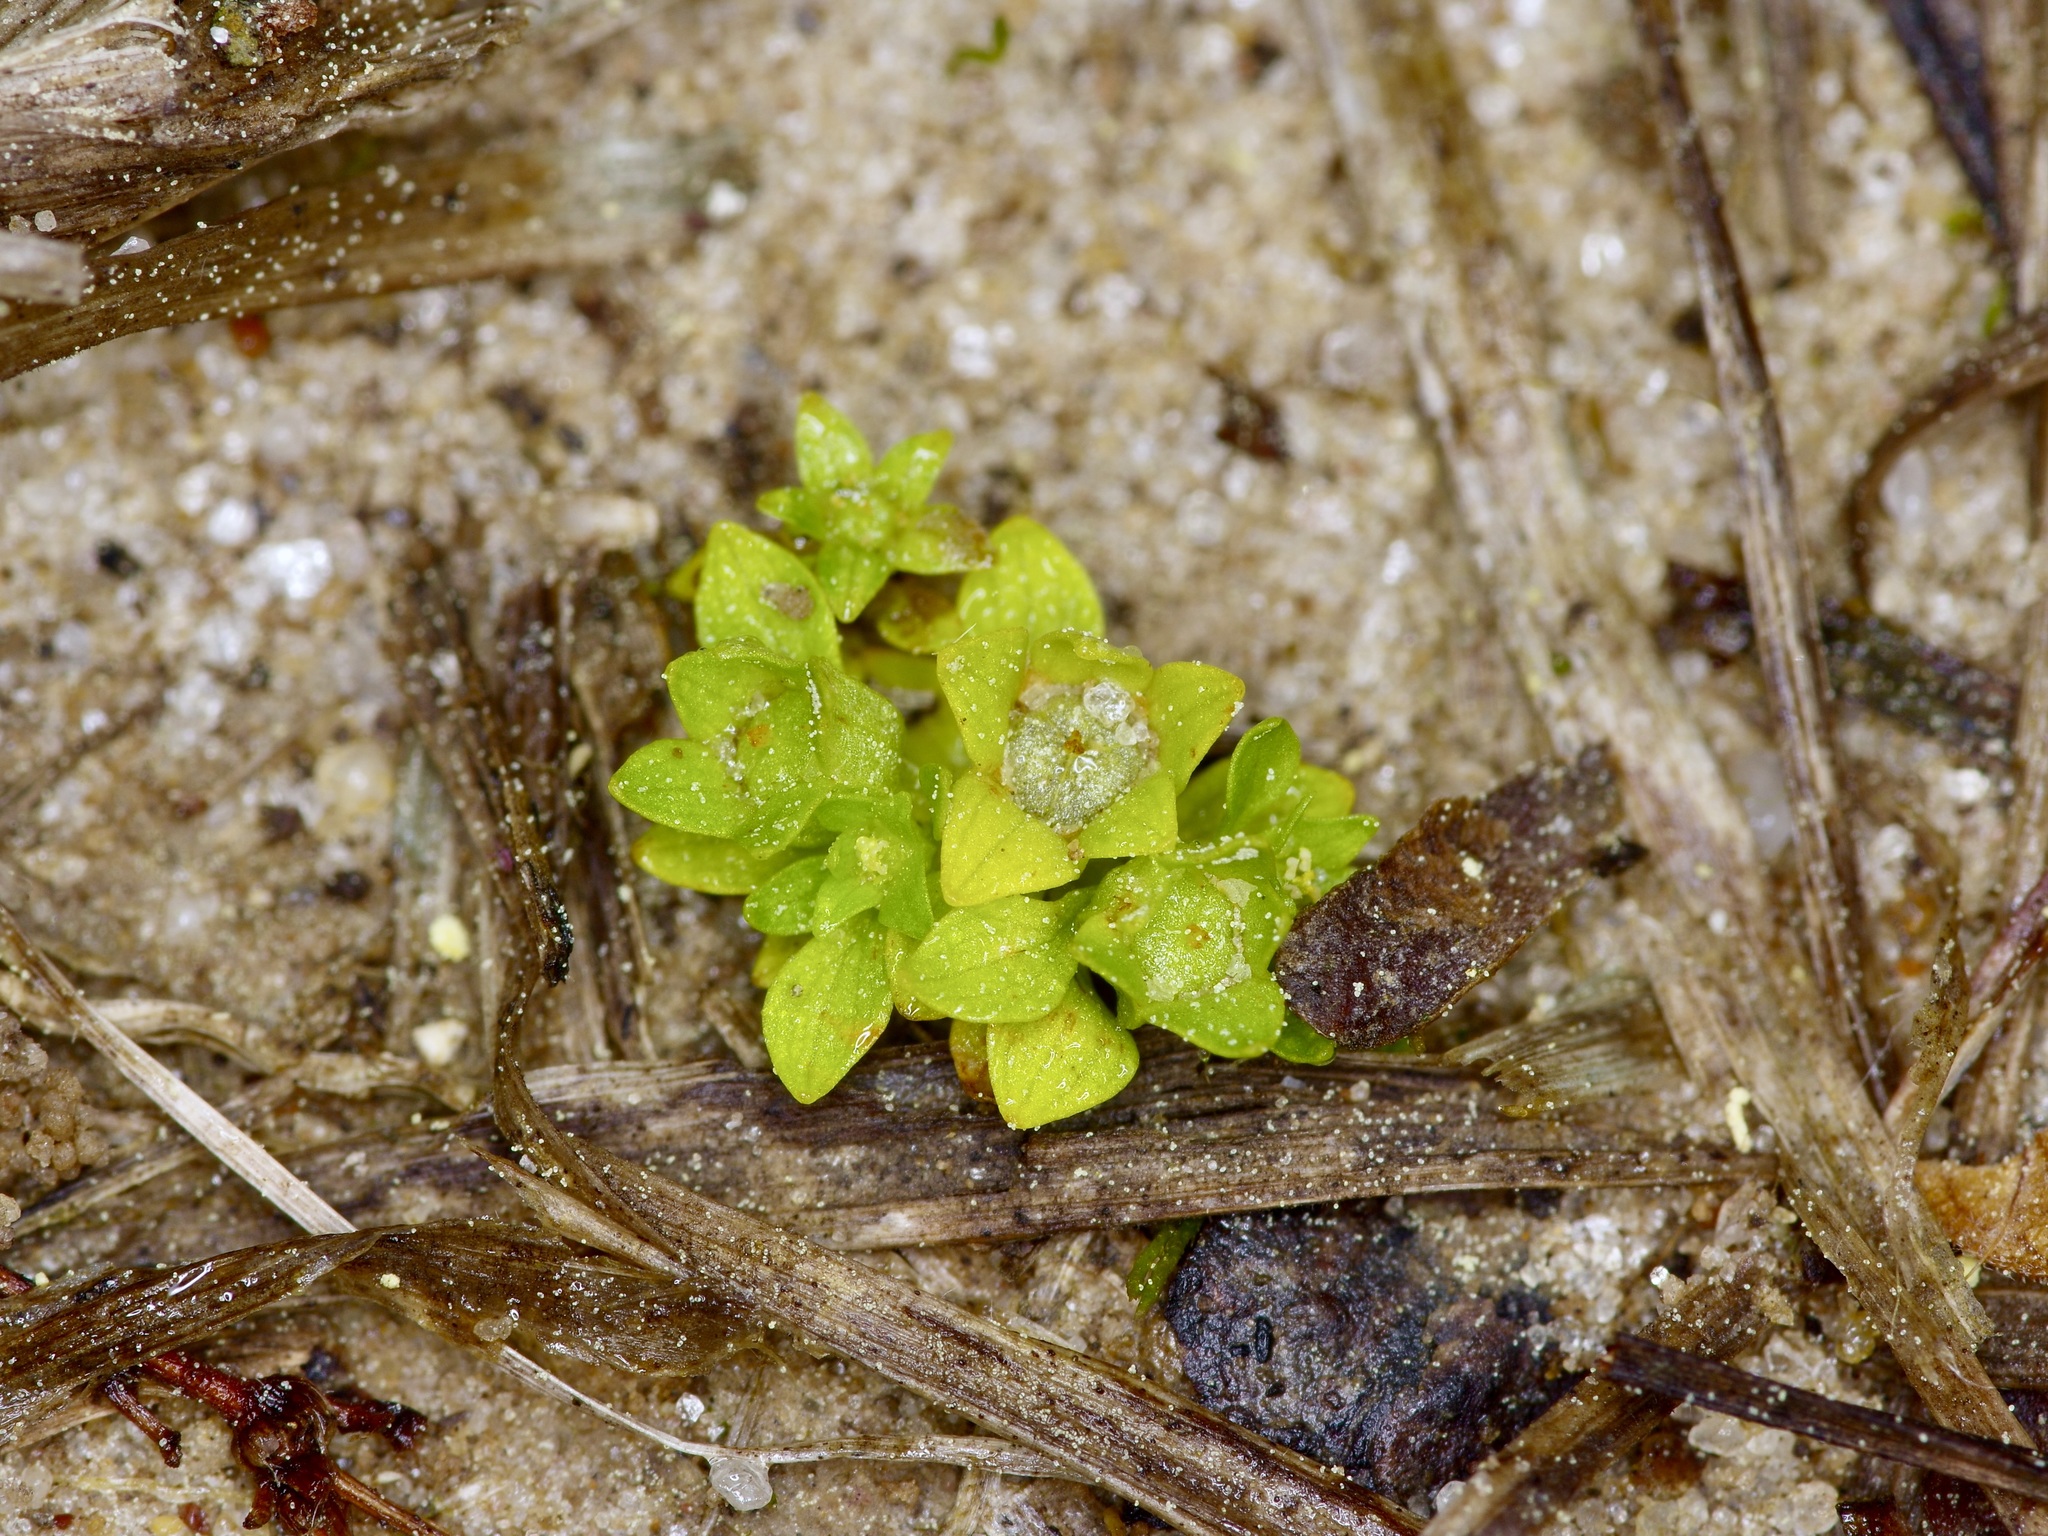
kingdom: Plantae
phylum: Tracheophyta
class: Magnoliopsida
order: Celastrales
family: Parnassiaceae
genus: Lepuropetalon
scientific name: Lepuropetalon spathulatum
